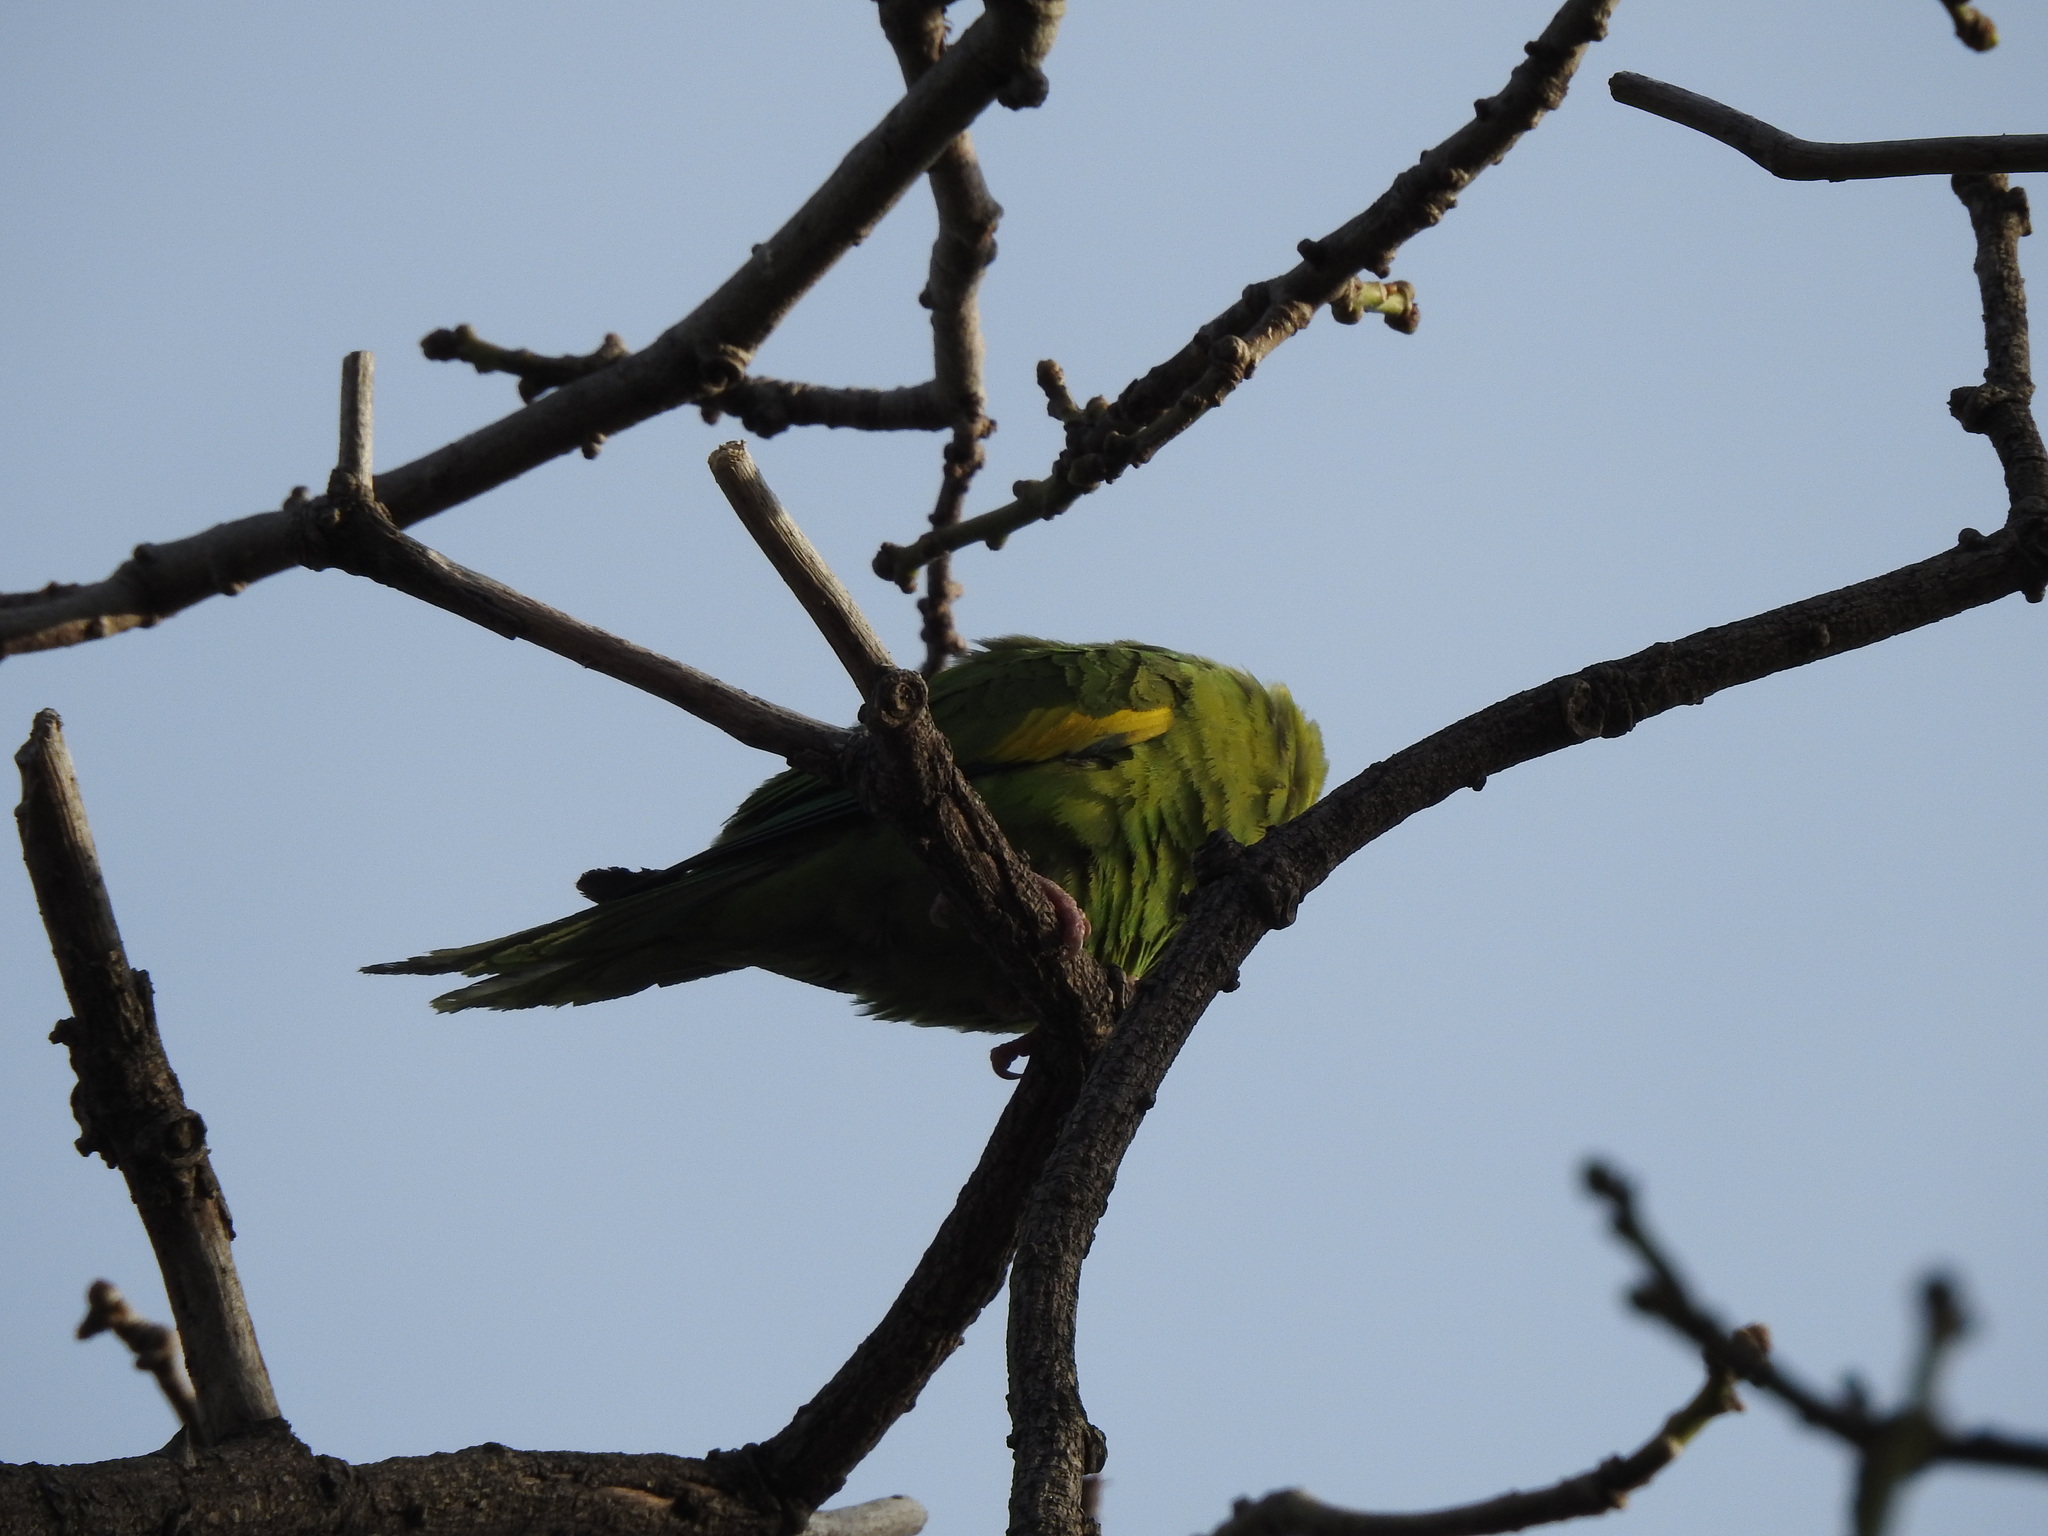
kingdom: Animalia
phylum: Chordata
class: Aves
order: Psittaciformes
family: Psittacidae
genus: Brotogeris
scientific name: Brotogeris chiriri
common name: Yellow-chevroned parakeet
